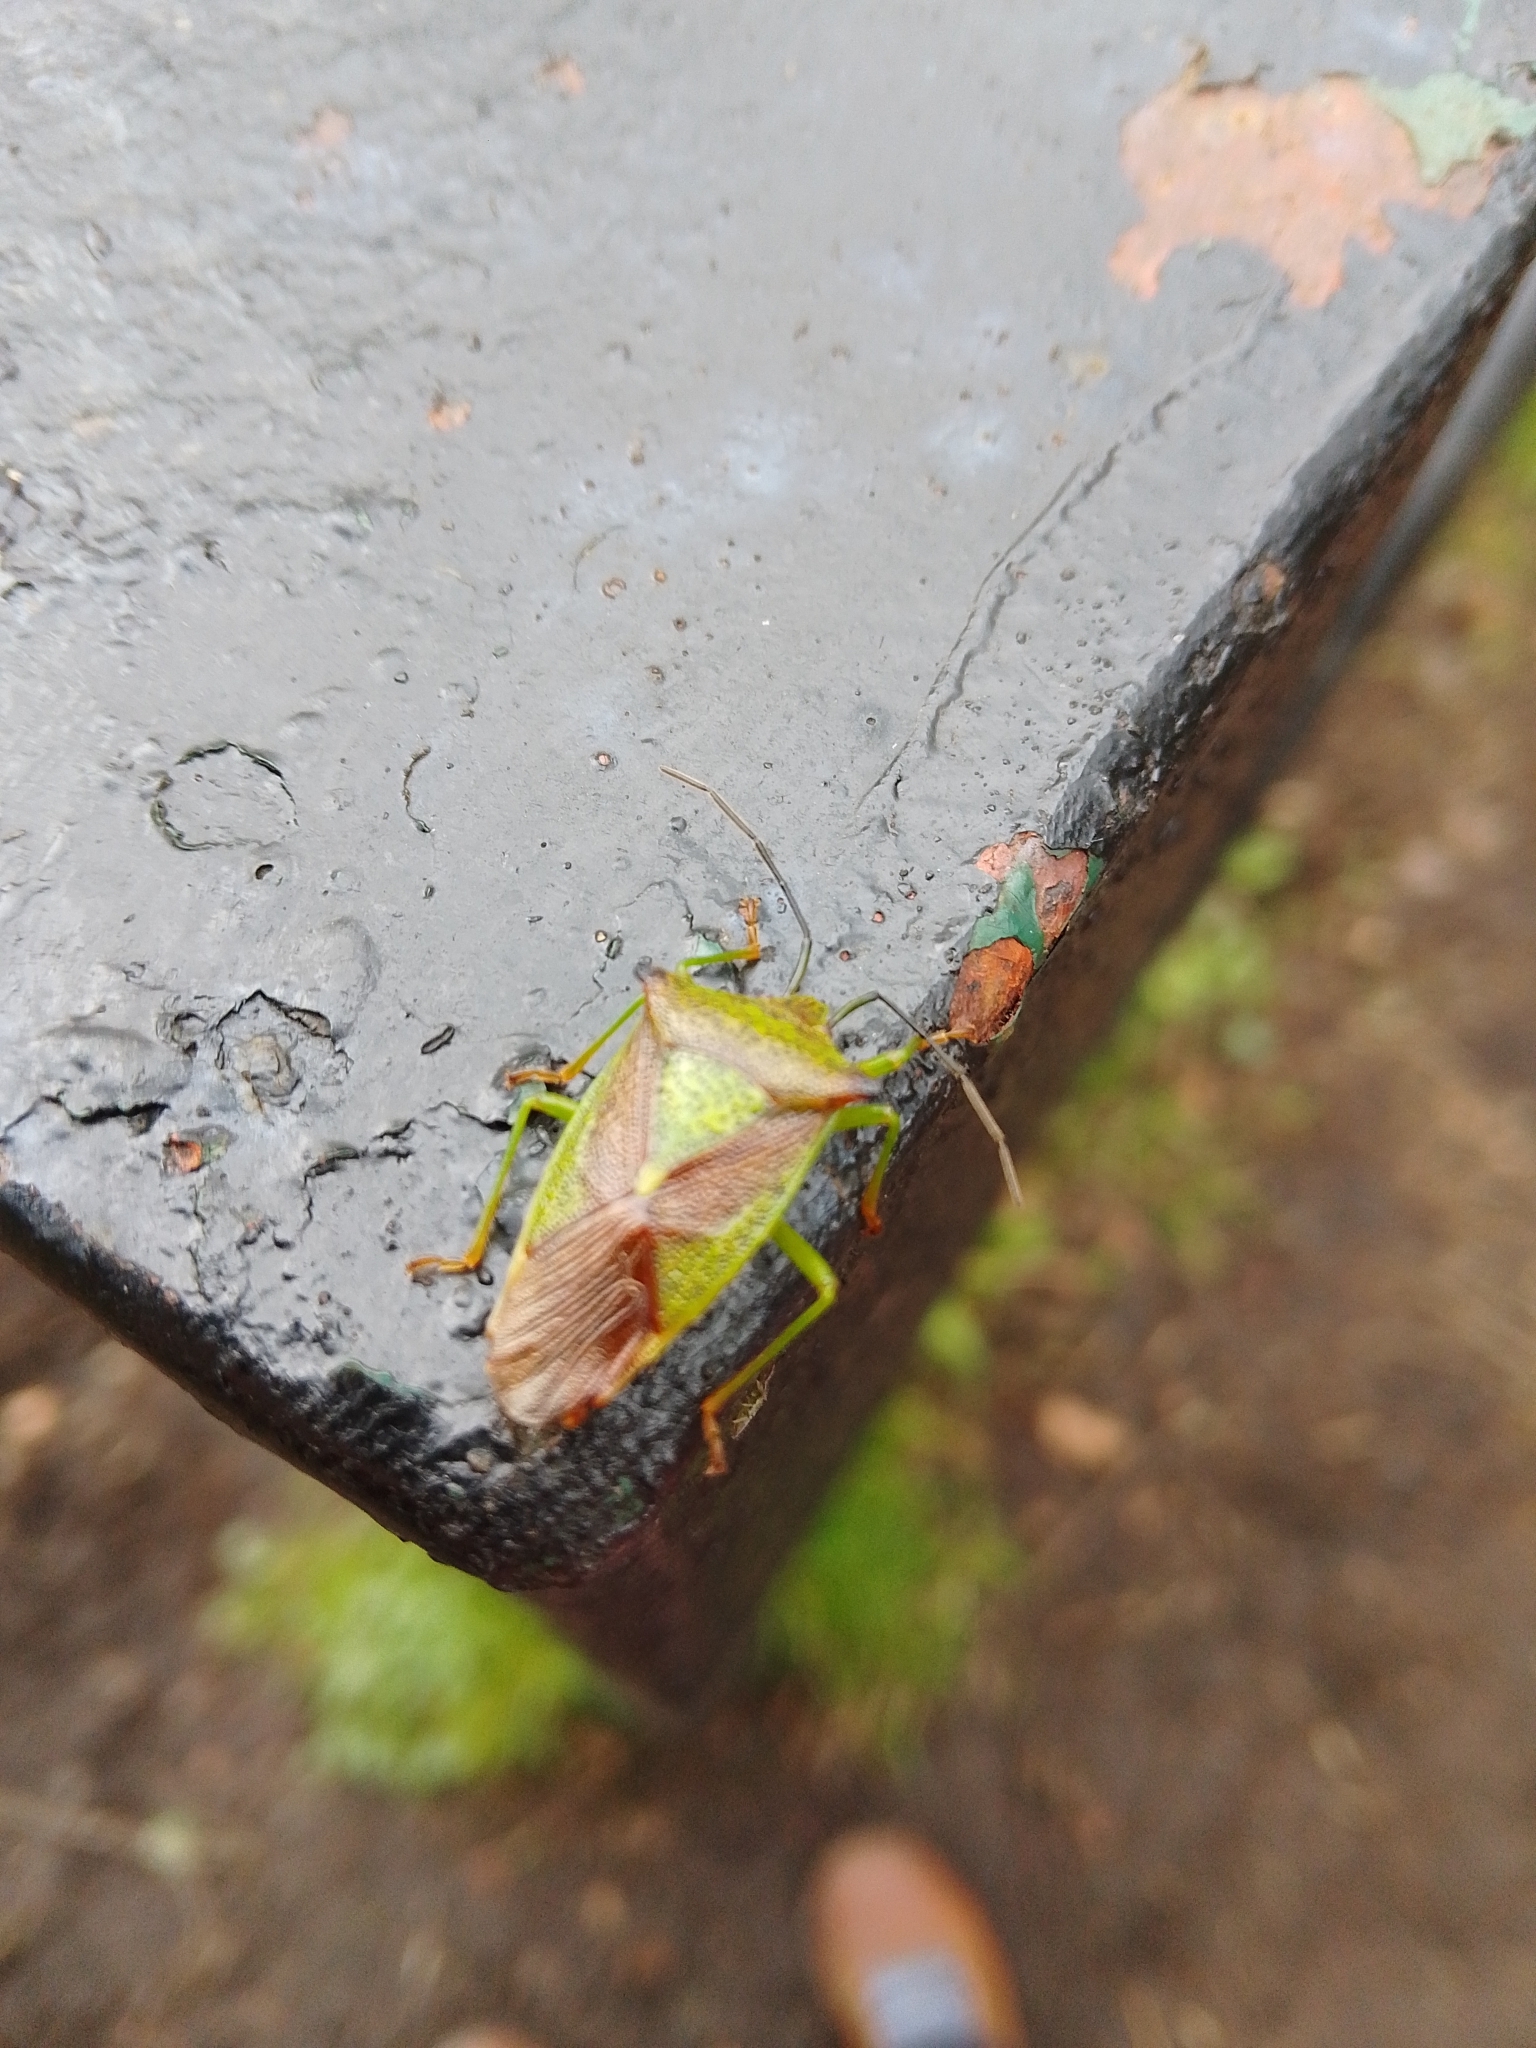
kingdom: Animalia
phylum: Arthropoda
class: Insecta
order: Hemiptera
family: Acanthosomatidae
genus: Acanthosoma
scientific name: Acanthosoma haemorrhoidale
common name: Hawthorn shieldbug
